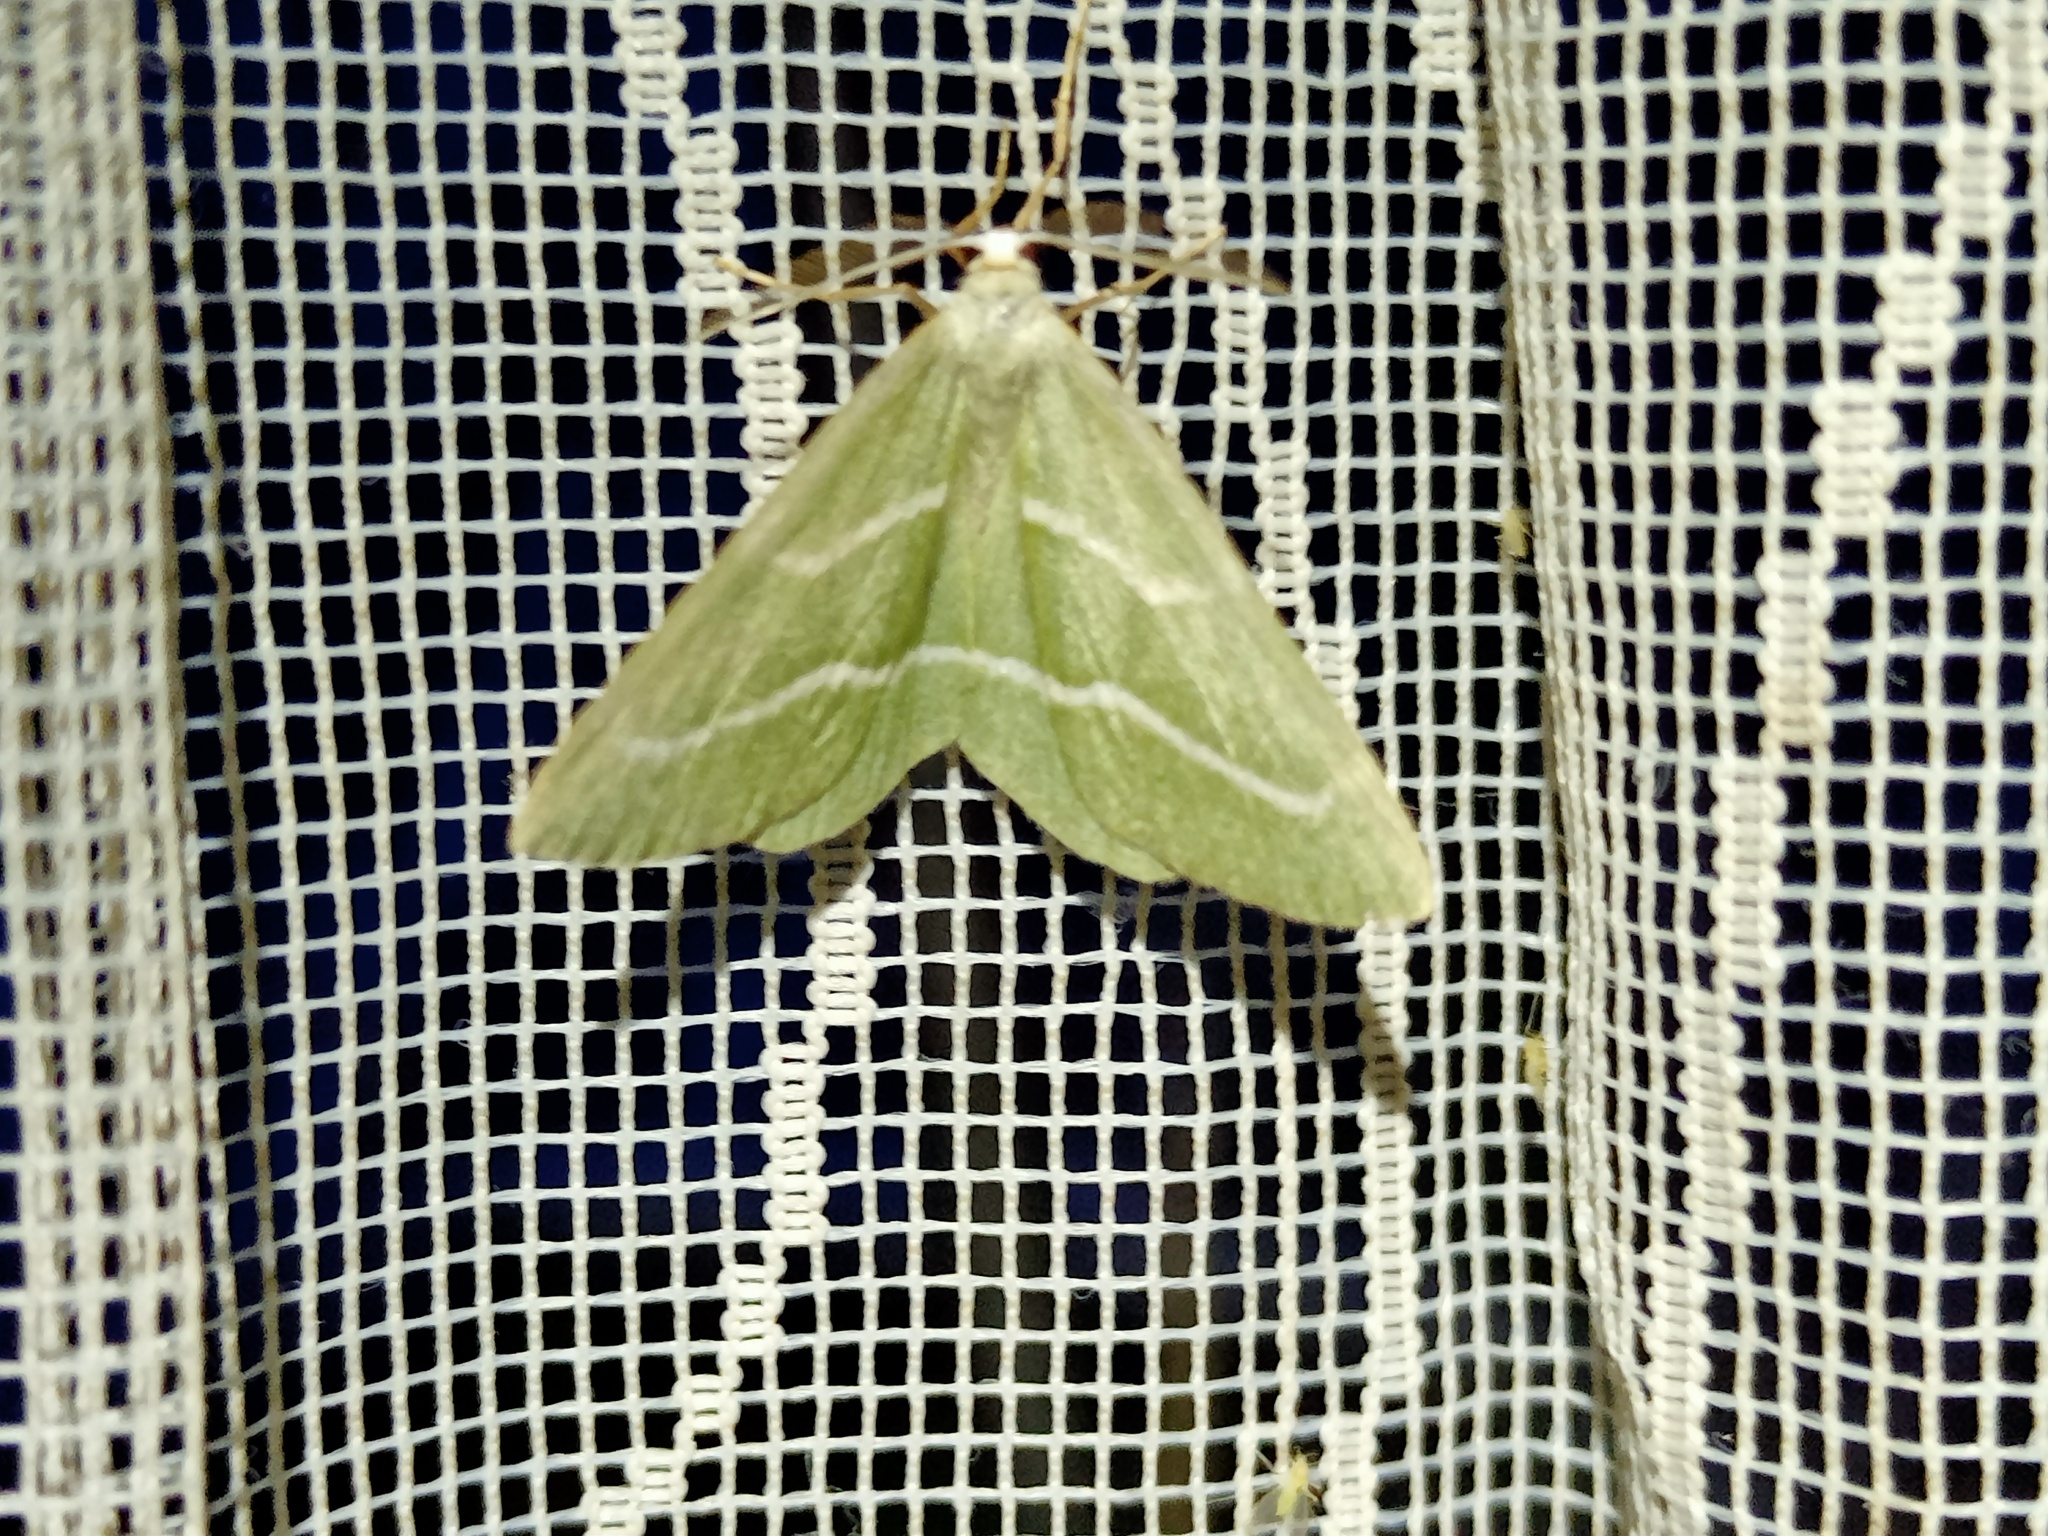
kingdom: Animalia
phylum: Arthropoda
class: Insecta
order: Lepidoptera
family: Geometridae
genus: Hylaea
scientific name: Hylaea fasciaria
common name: Barred red
